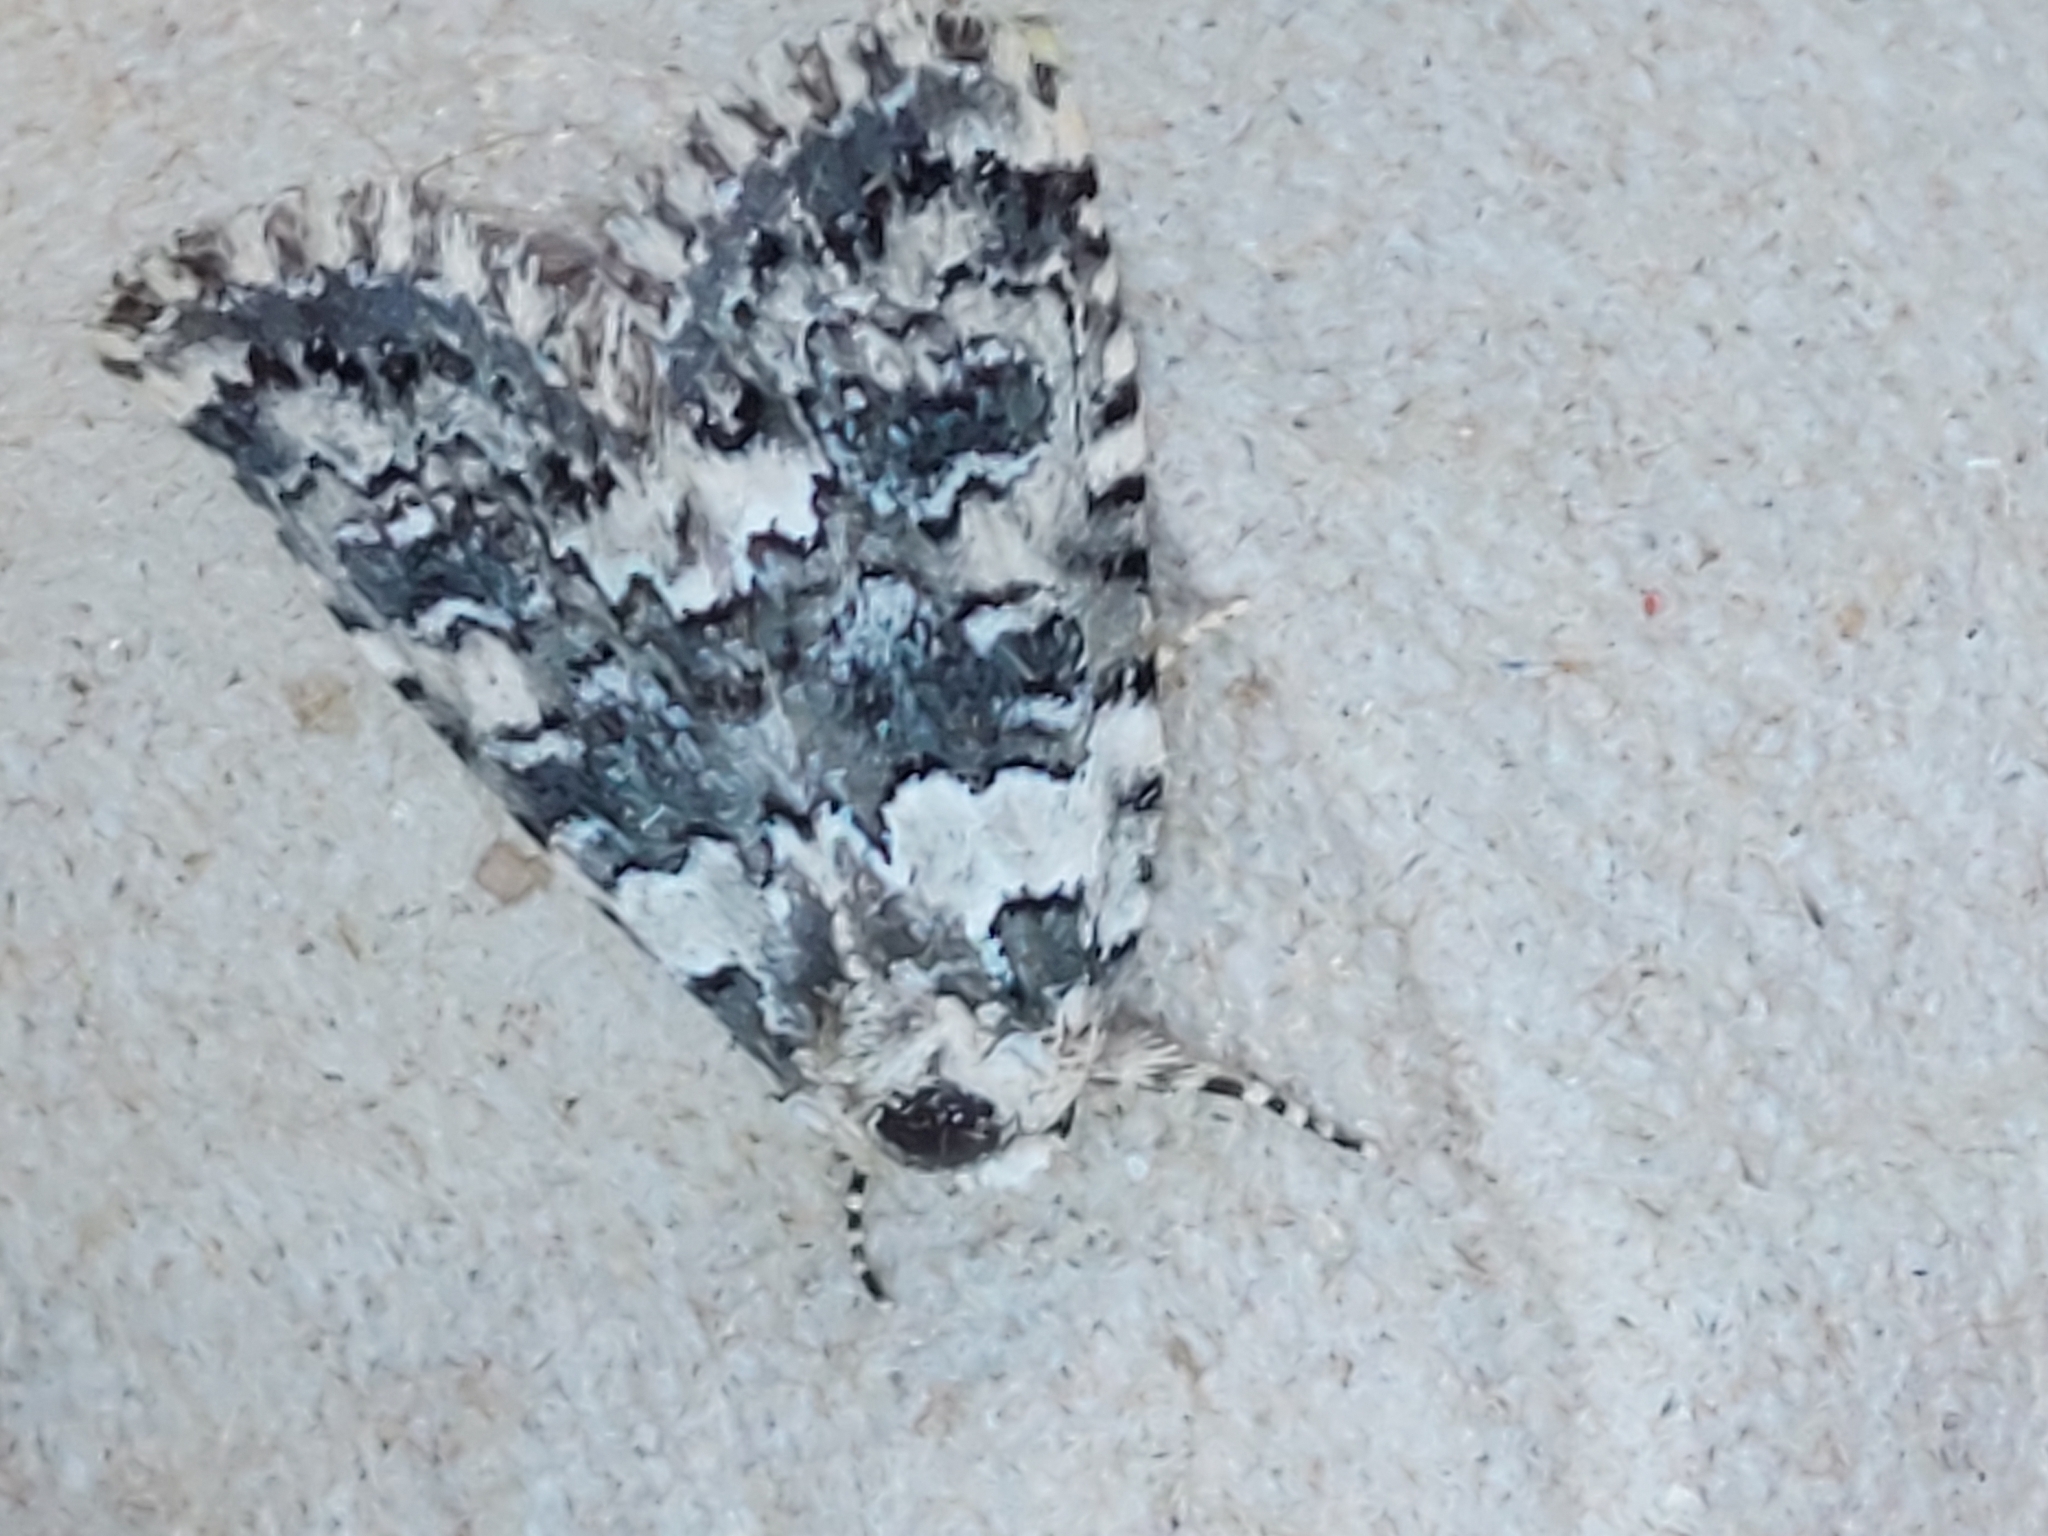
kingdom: Animalia
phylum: Arthropoda
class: Insecta
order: Lepidoptera
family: Noctuidae
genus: Bryophila
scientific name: Bryophila domestica
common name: Marbled beauty
